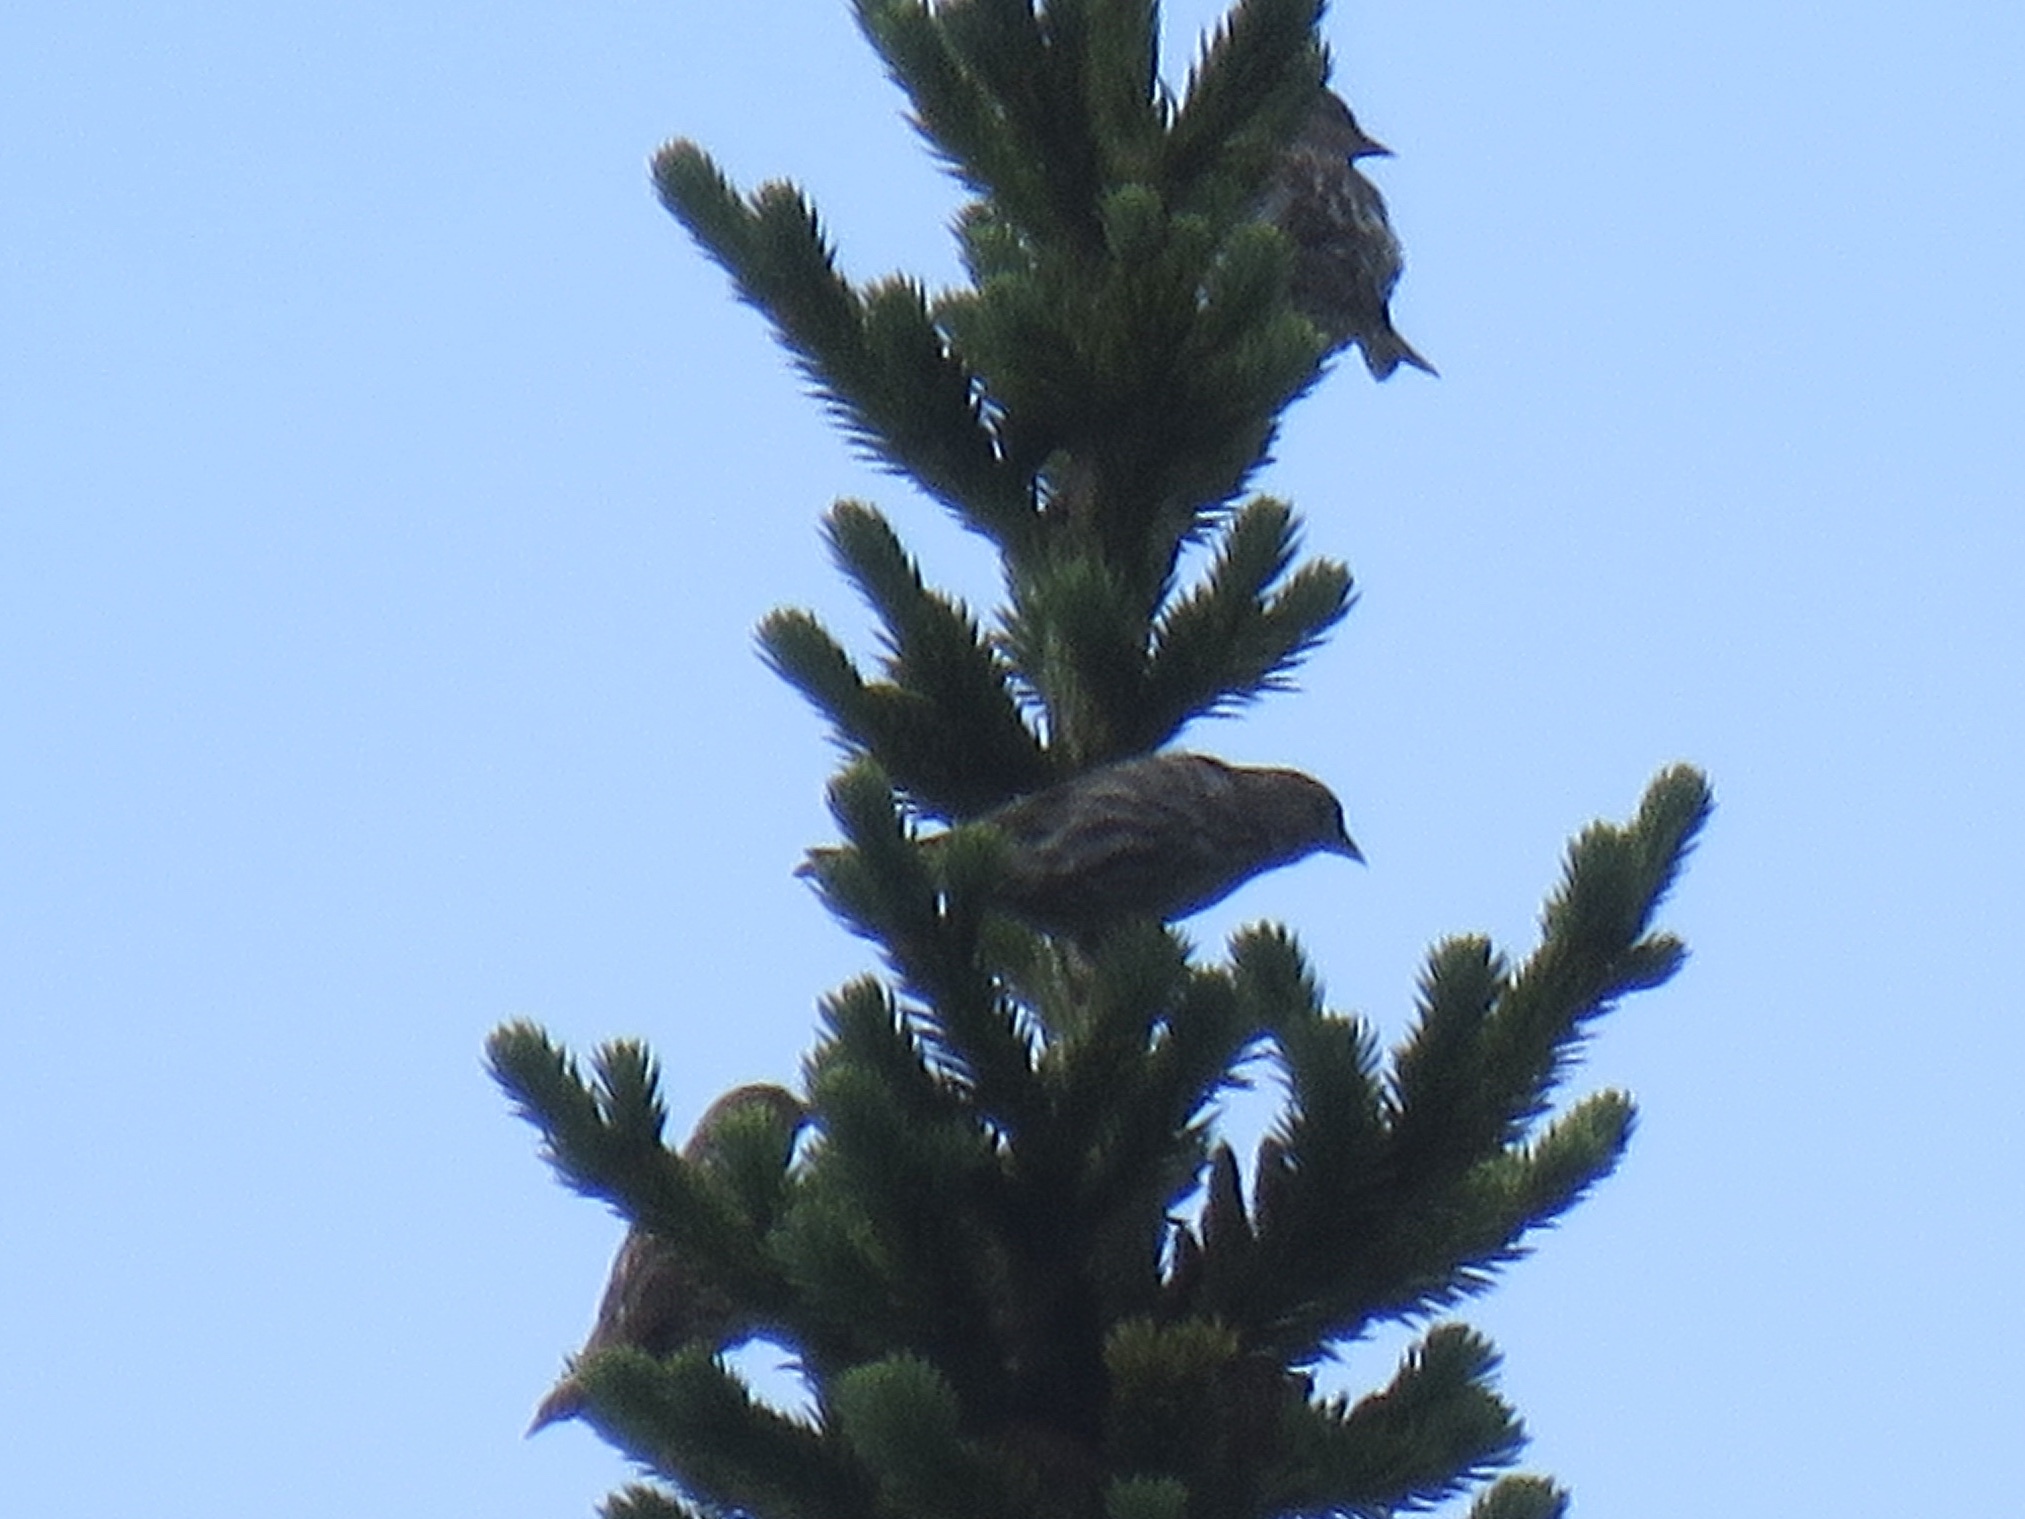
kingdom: Animalia
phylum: Chordata
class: Aves
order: Passeriformes
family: Fringillidae
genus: Spinus
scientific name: Spinus pinus
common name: Pine siskin
